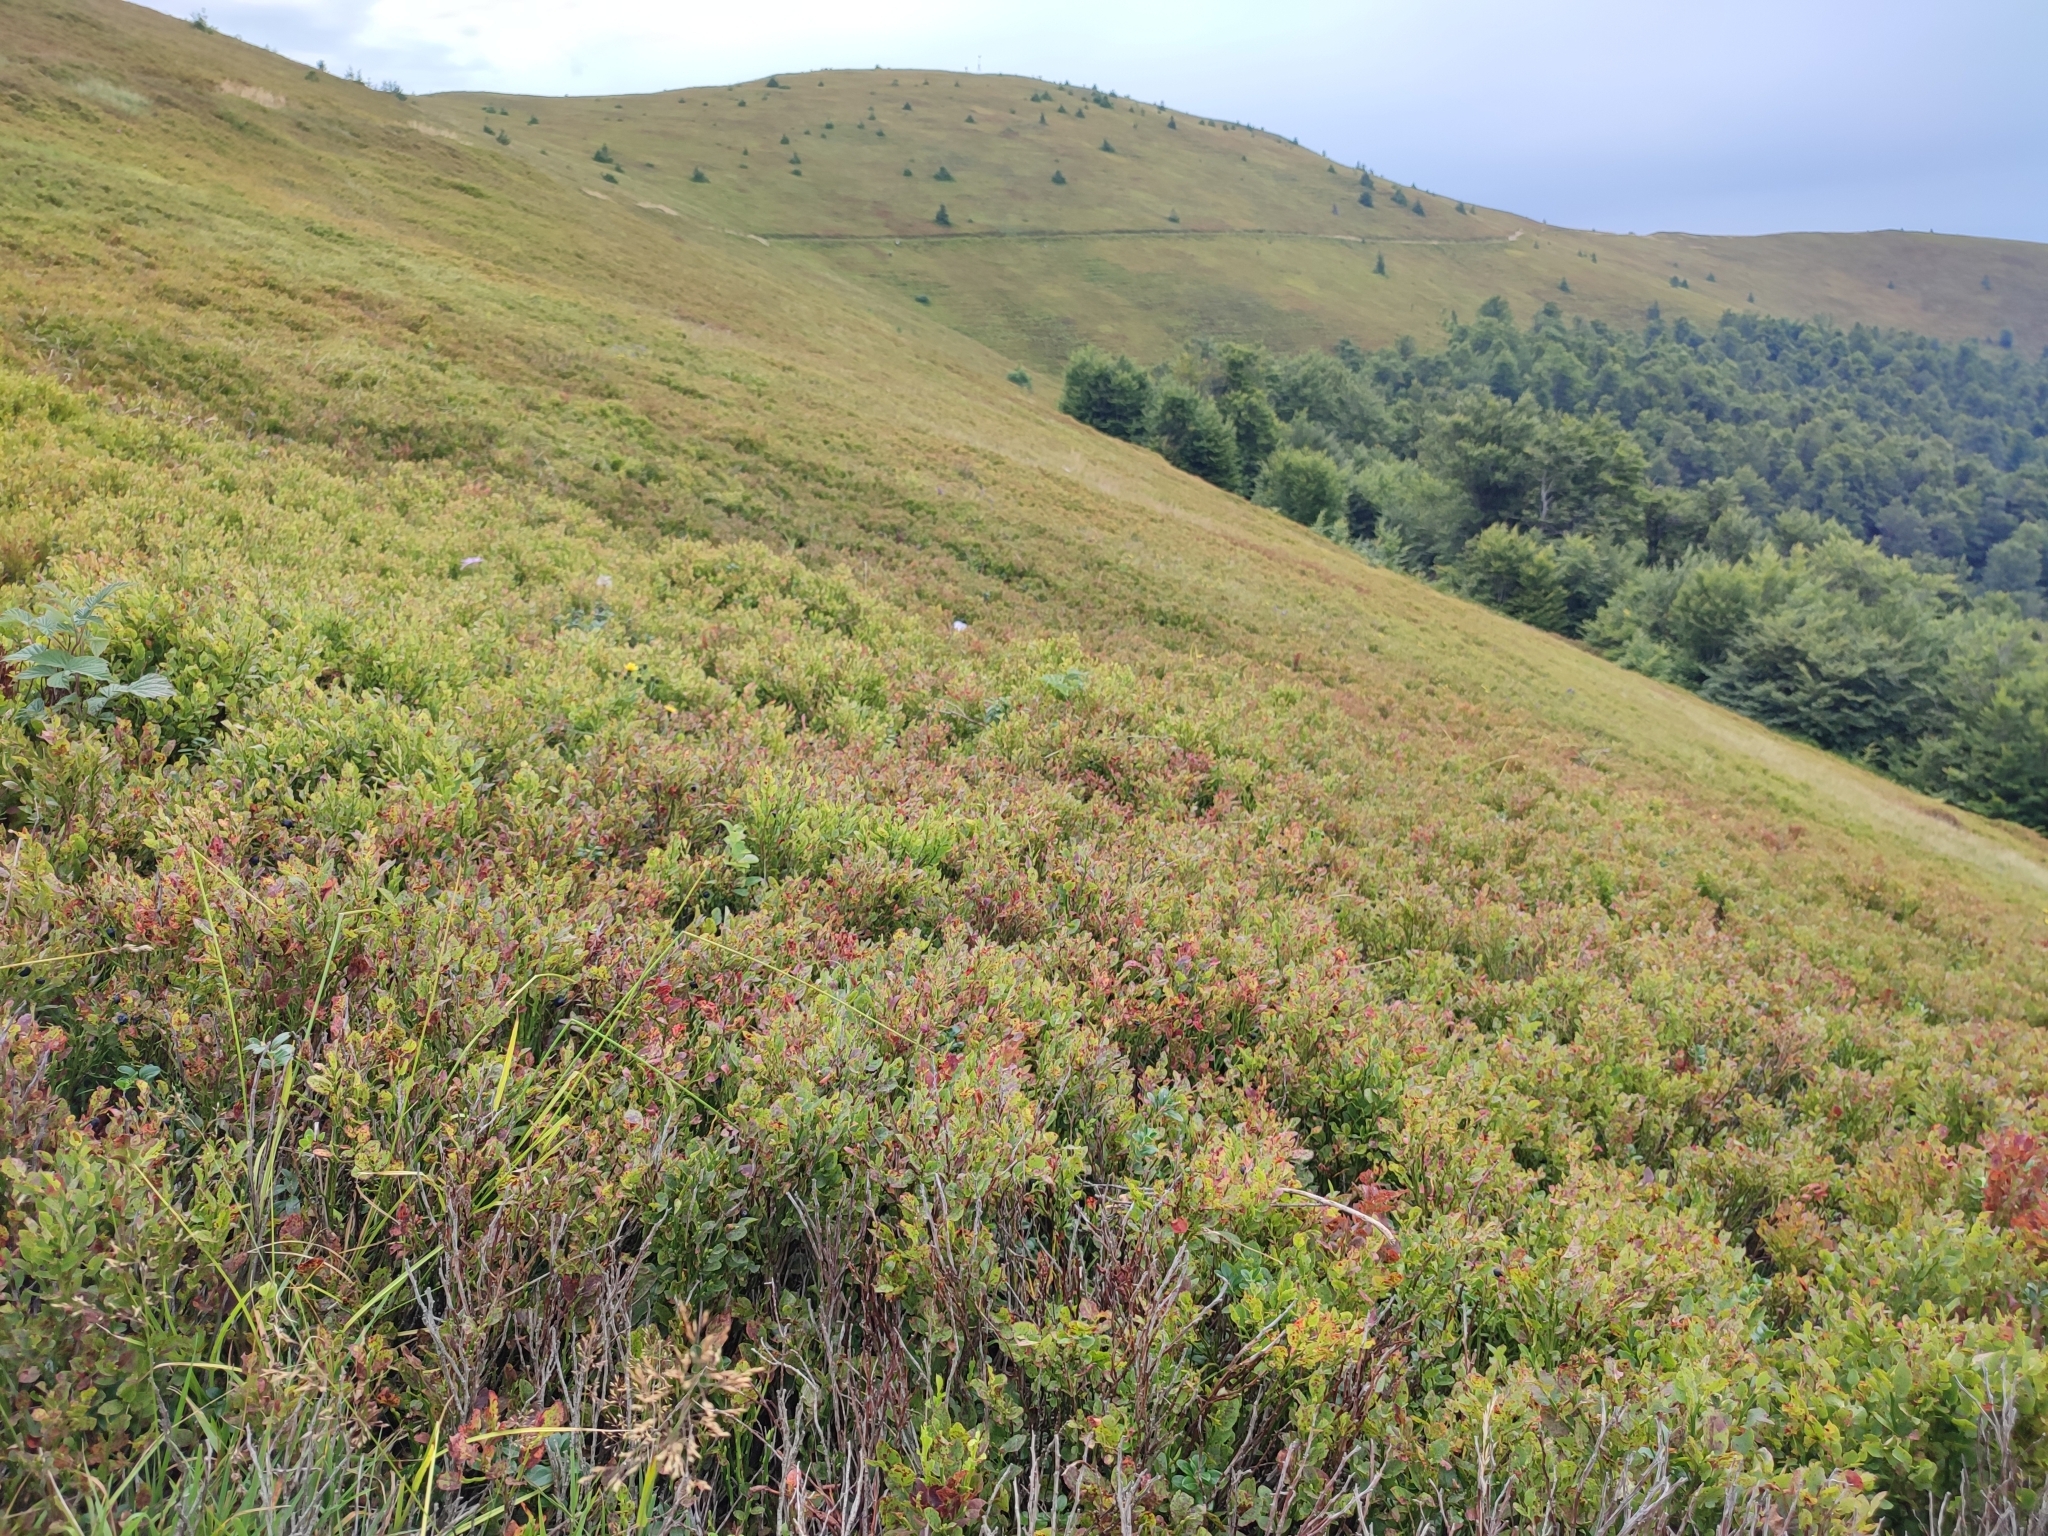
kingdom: Plantae
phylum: Tracheophyta
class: Magnoliopsida
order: Ericales
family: Ericaceae
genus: Vaccinium
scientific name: Vaccinium myrtillus
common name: Bilberry
